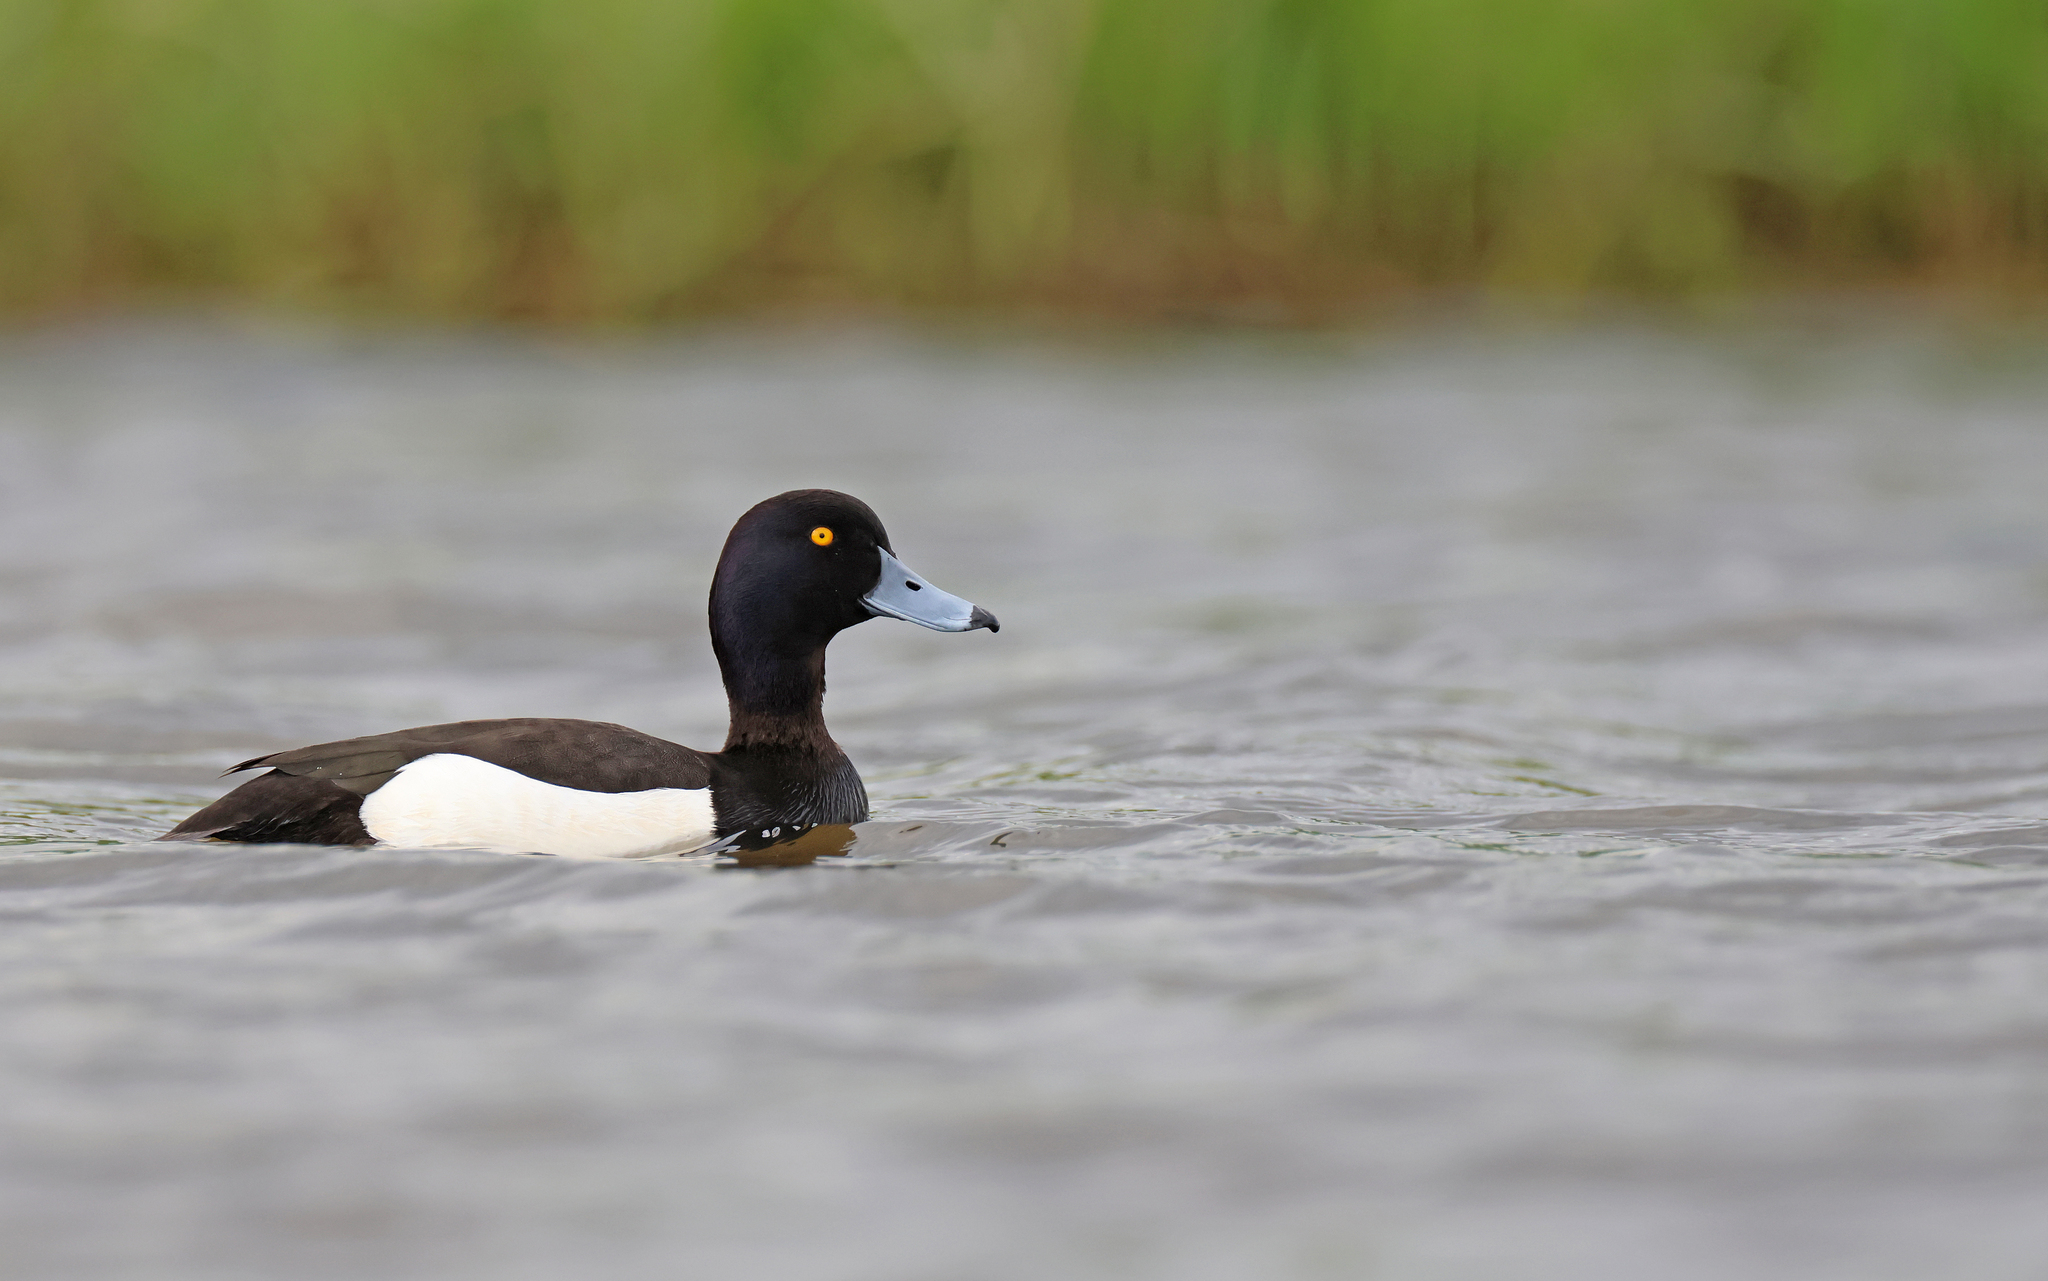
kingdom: Animalia
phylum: Chordata
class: Aves
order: Anseriformes
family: Anatidae
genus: Aythya
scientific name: Aythya fuligula
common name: Tufted duck
